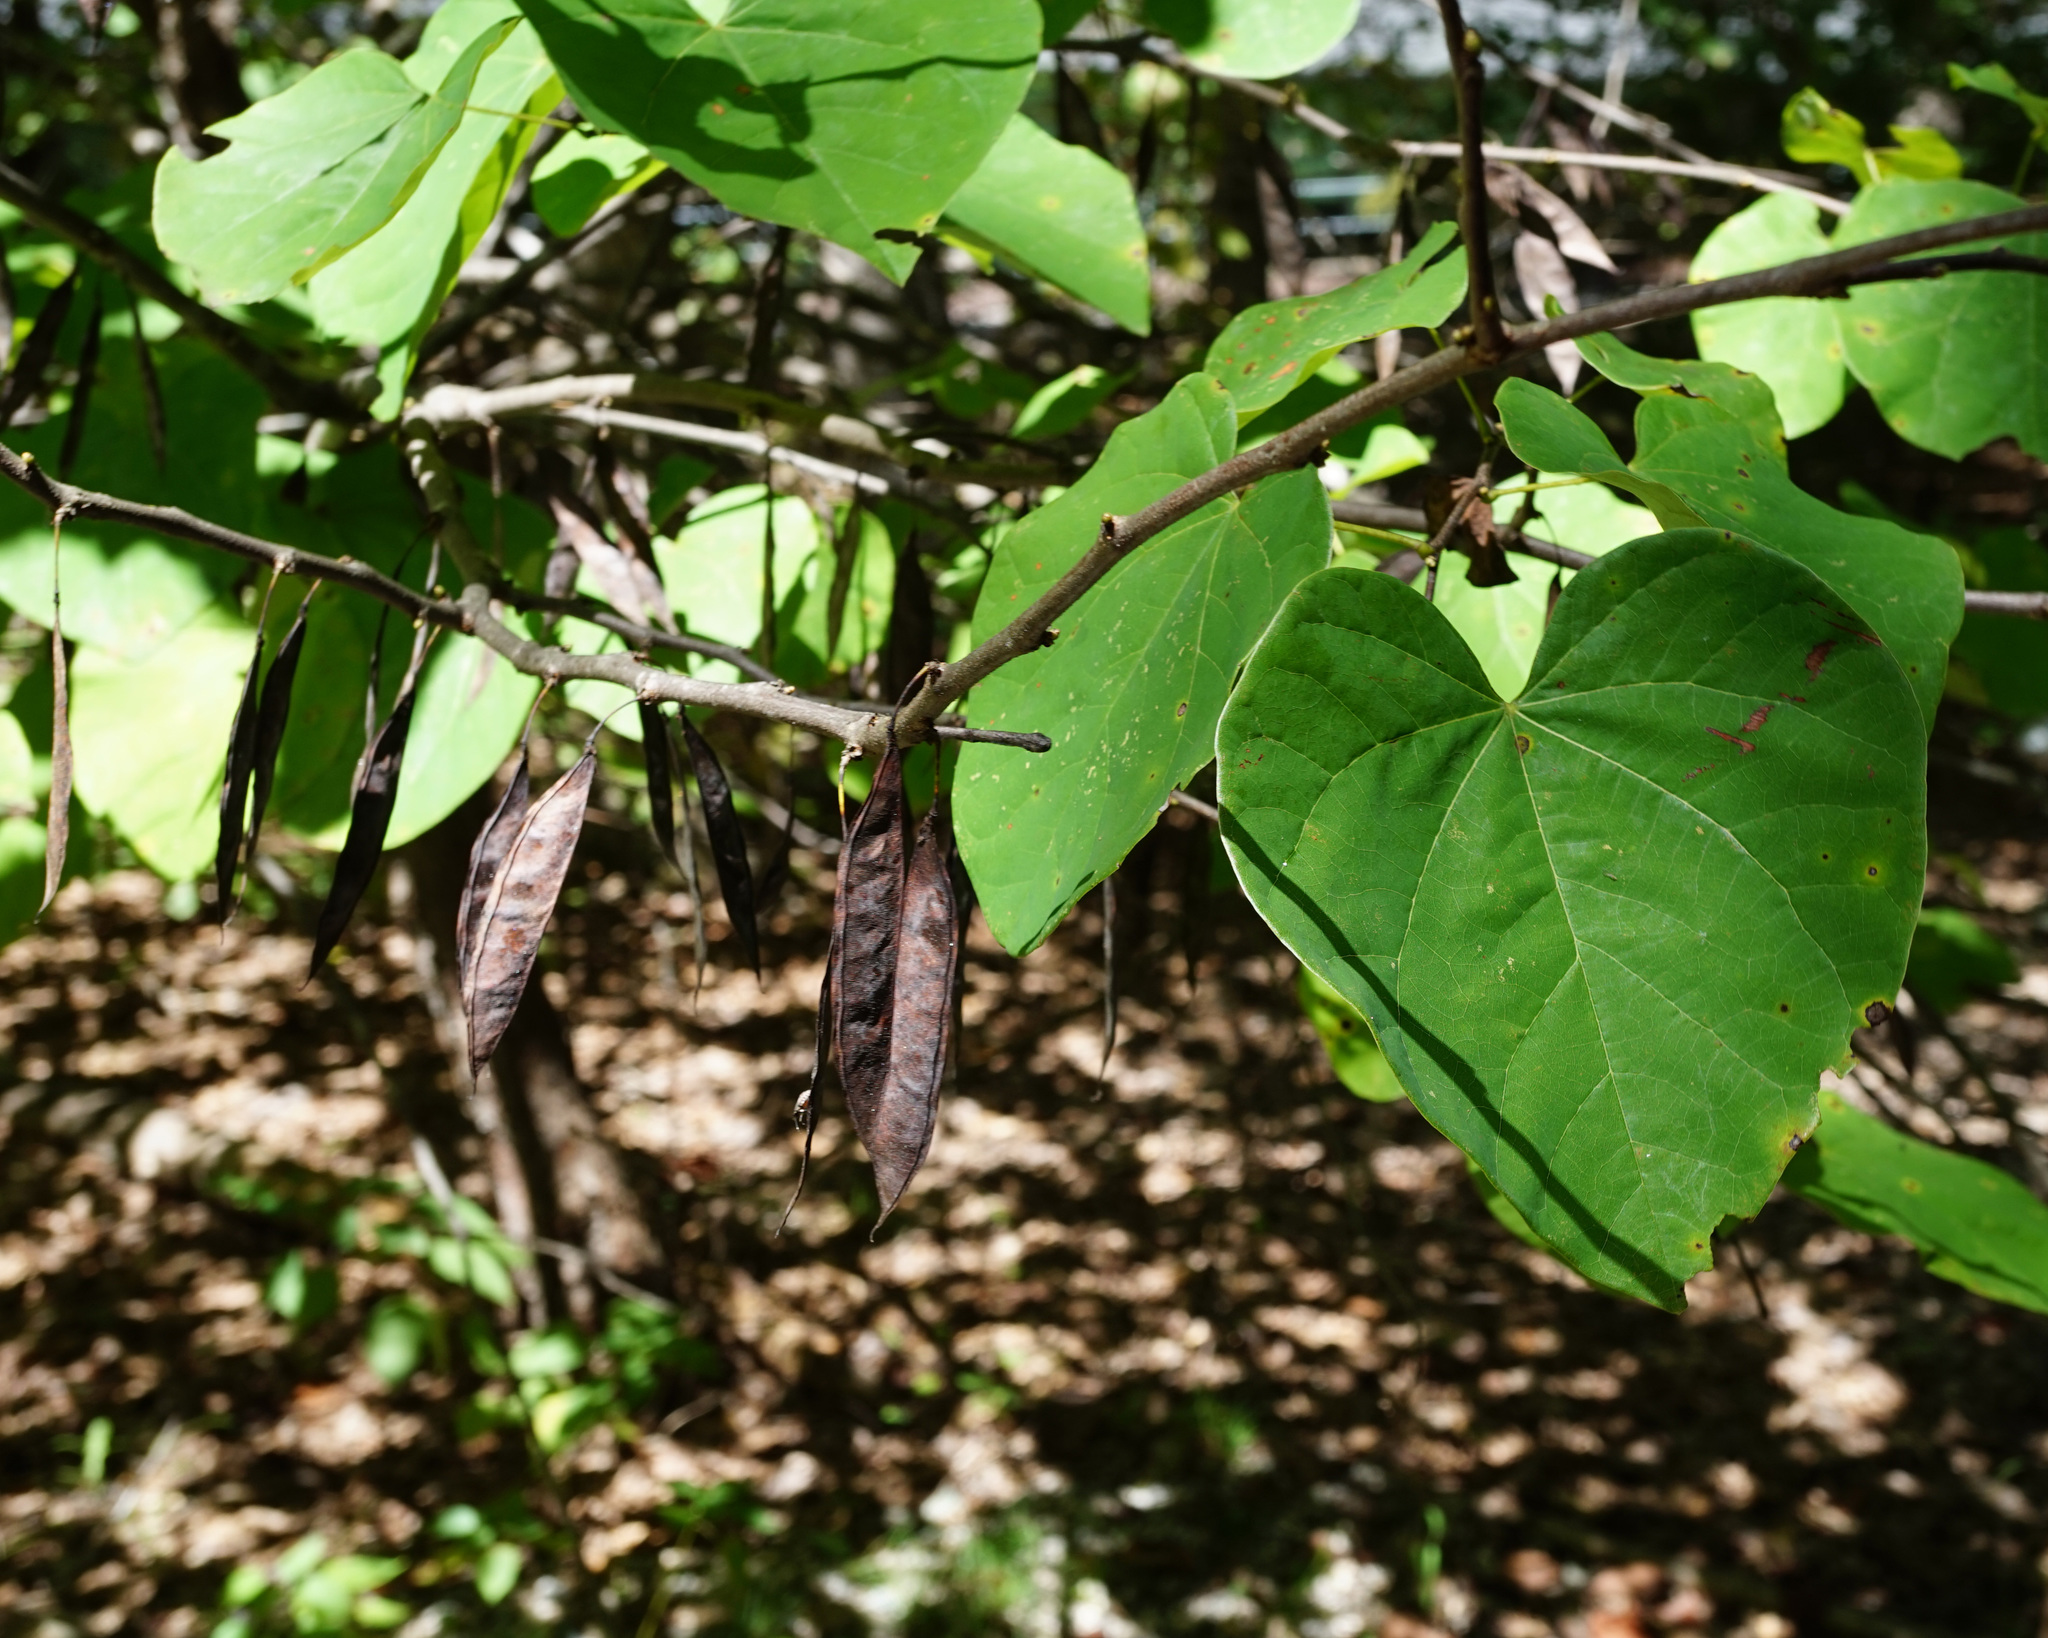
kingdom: Plantae
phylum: Tracheophyta
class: Magnoliopsida
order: Fabales
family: Fabaceae
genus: Cercis
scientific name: Cercis canadensis
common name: Eastern redbud
